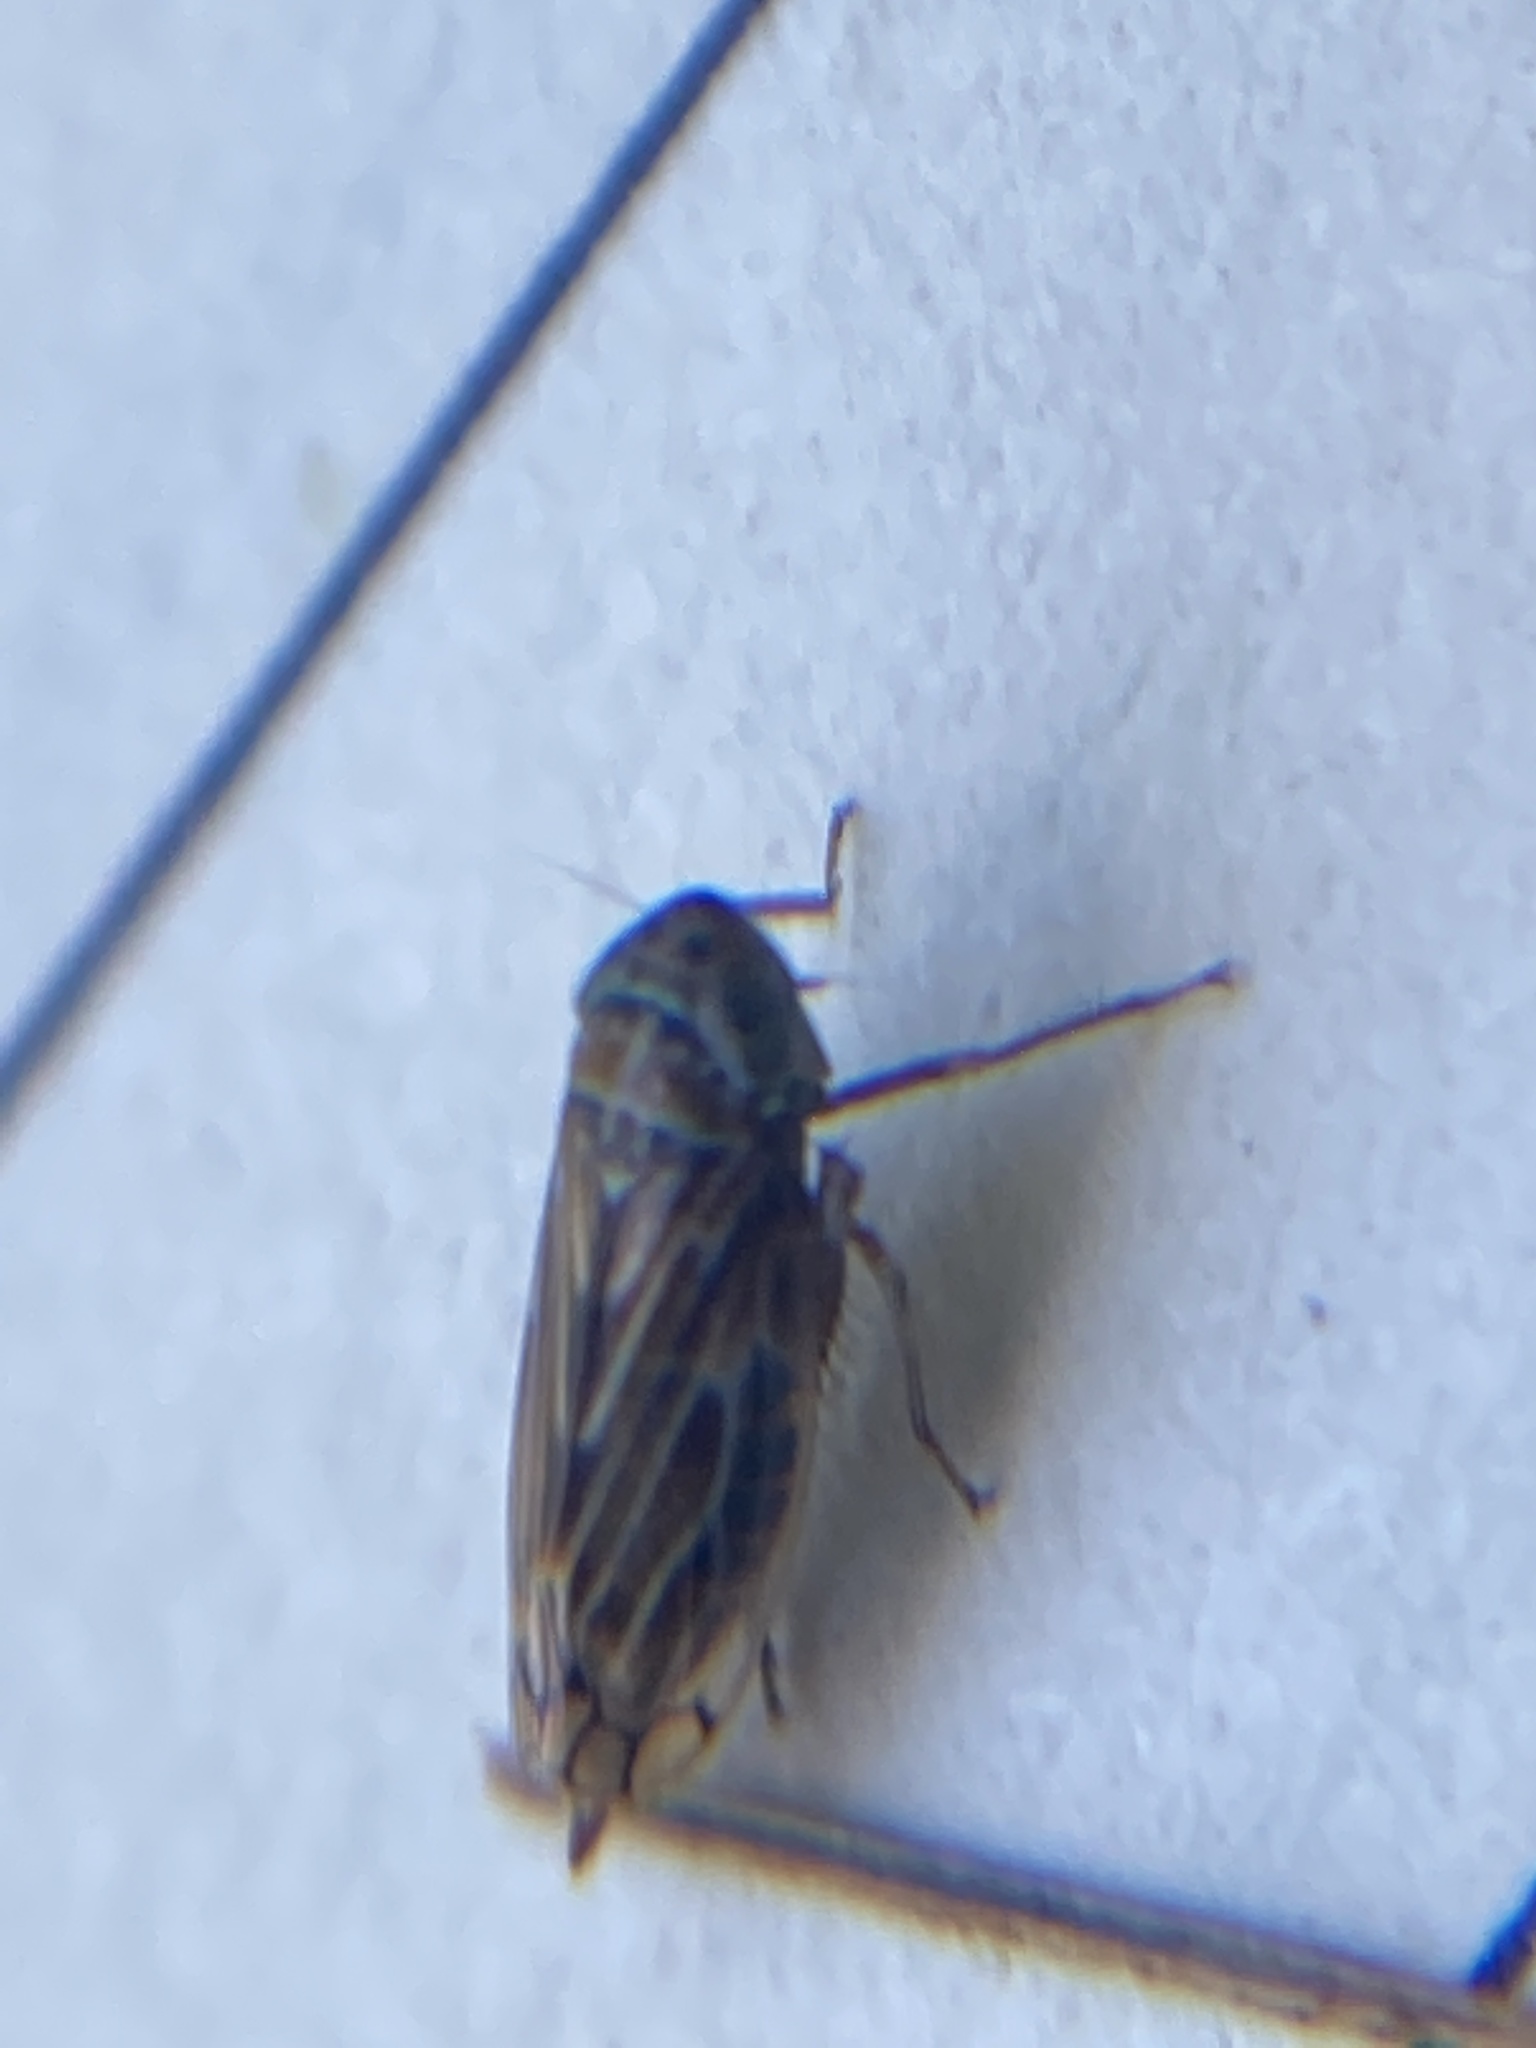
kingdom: Animalia
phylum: Arthropoda
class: Insecta
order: Hemiptera
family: Cicadellidae
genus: Stirellus
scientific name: Stirellus bicolor
